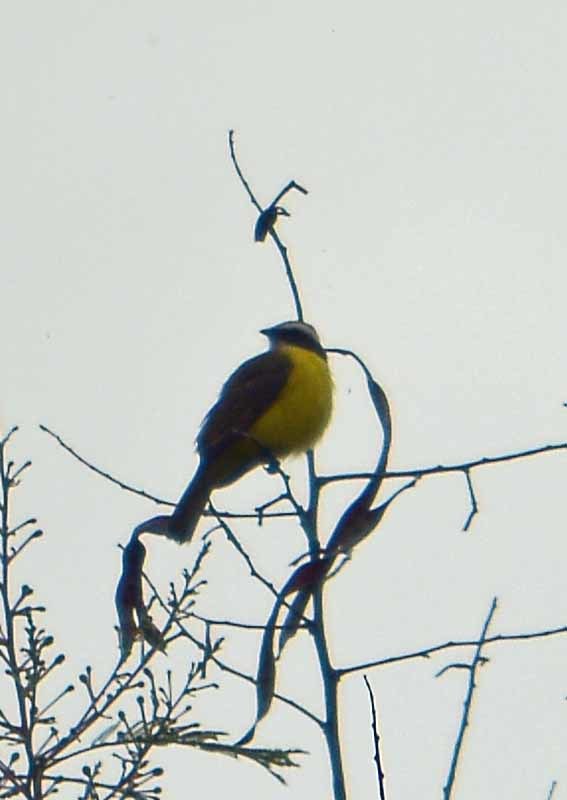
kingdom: Animalia
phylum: Chordata
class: Aves
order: Passeriformes
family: Tyrannidae
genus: Myiozetetes
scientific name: Myiozetetes similis
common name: Social flycatcher
